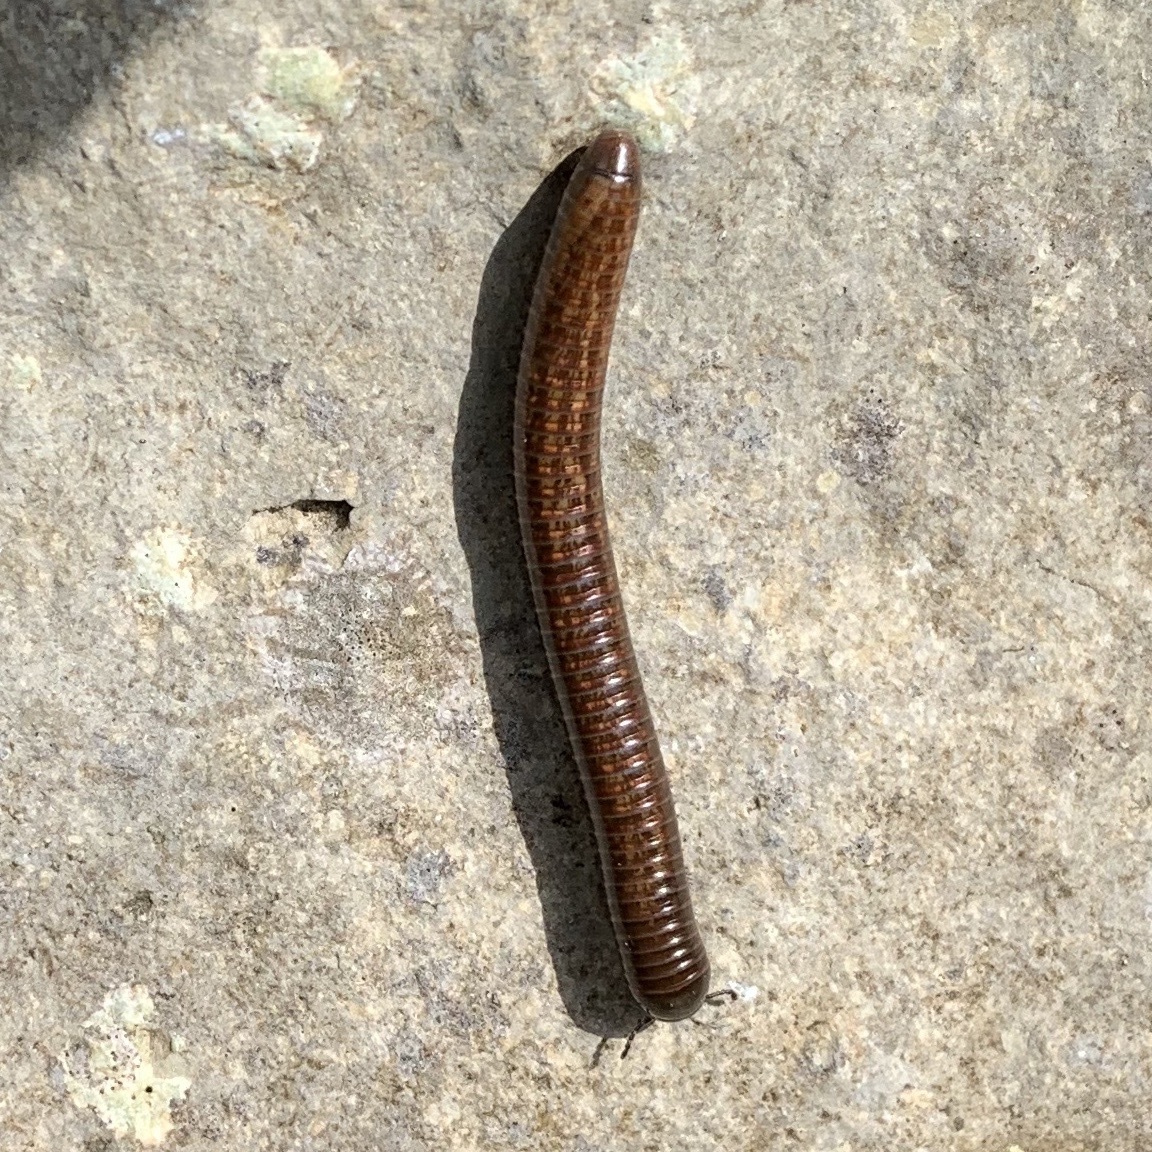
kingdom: Animalia
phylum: Arthropoda
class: Diplopoda
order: Spirostreptida
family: Choctellidae
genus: Choctella
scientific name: Choctella cumminsi
